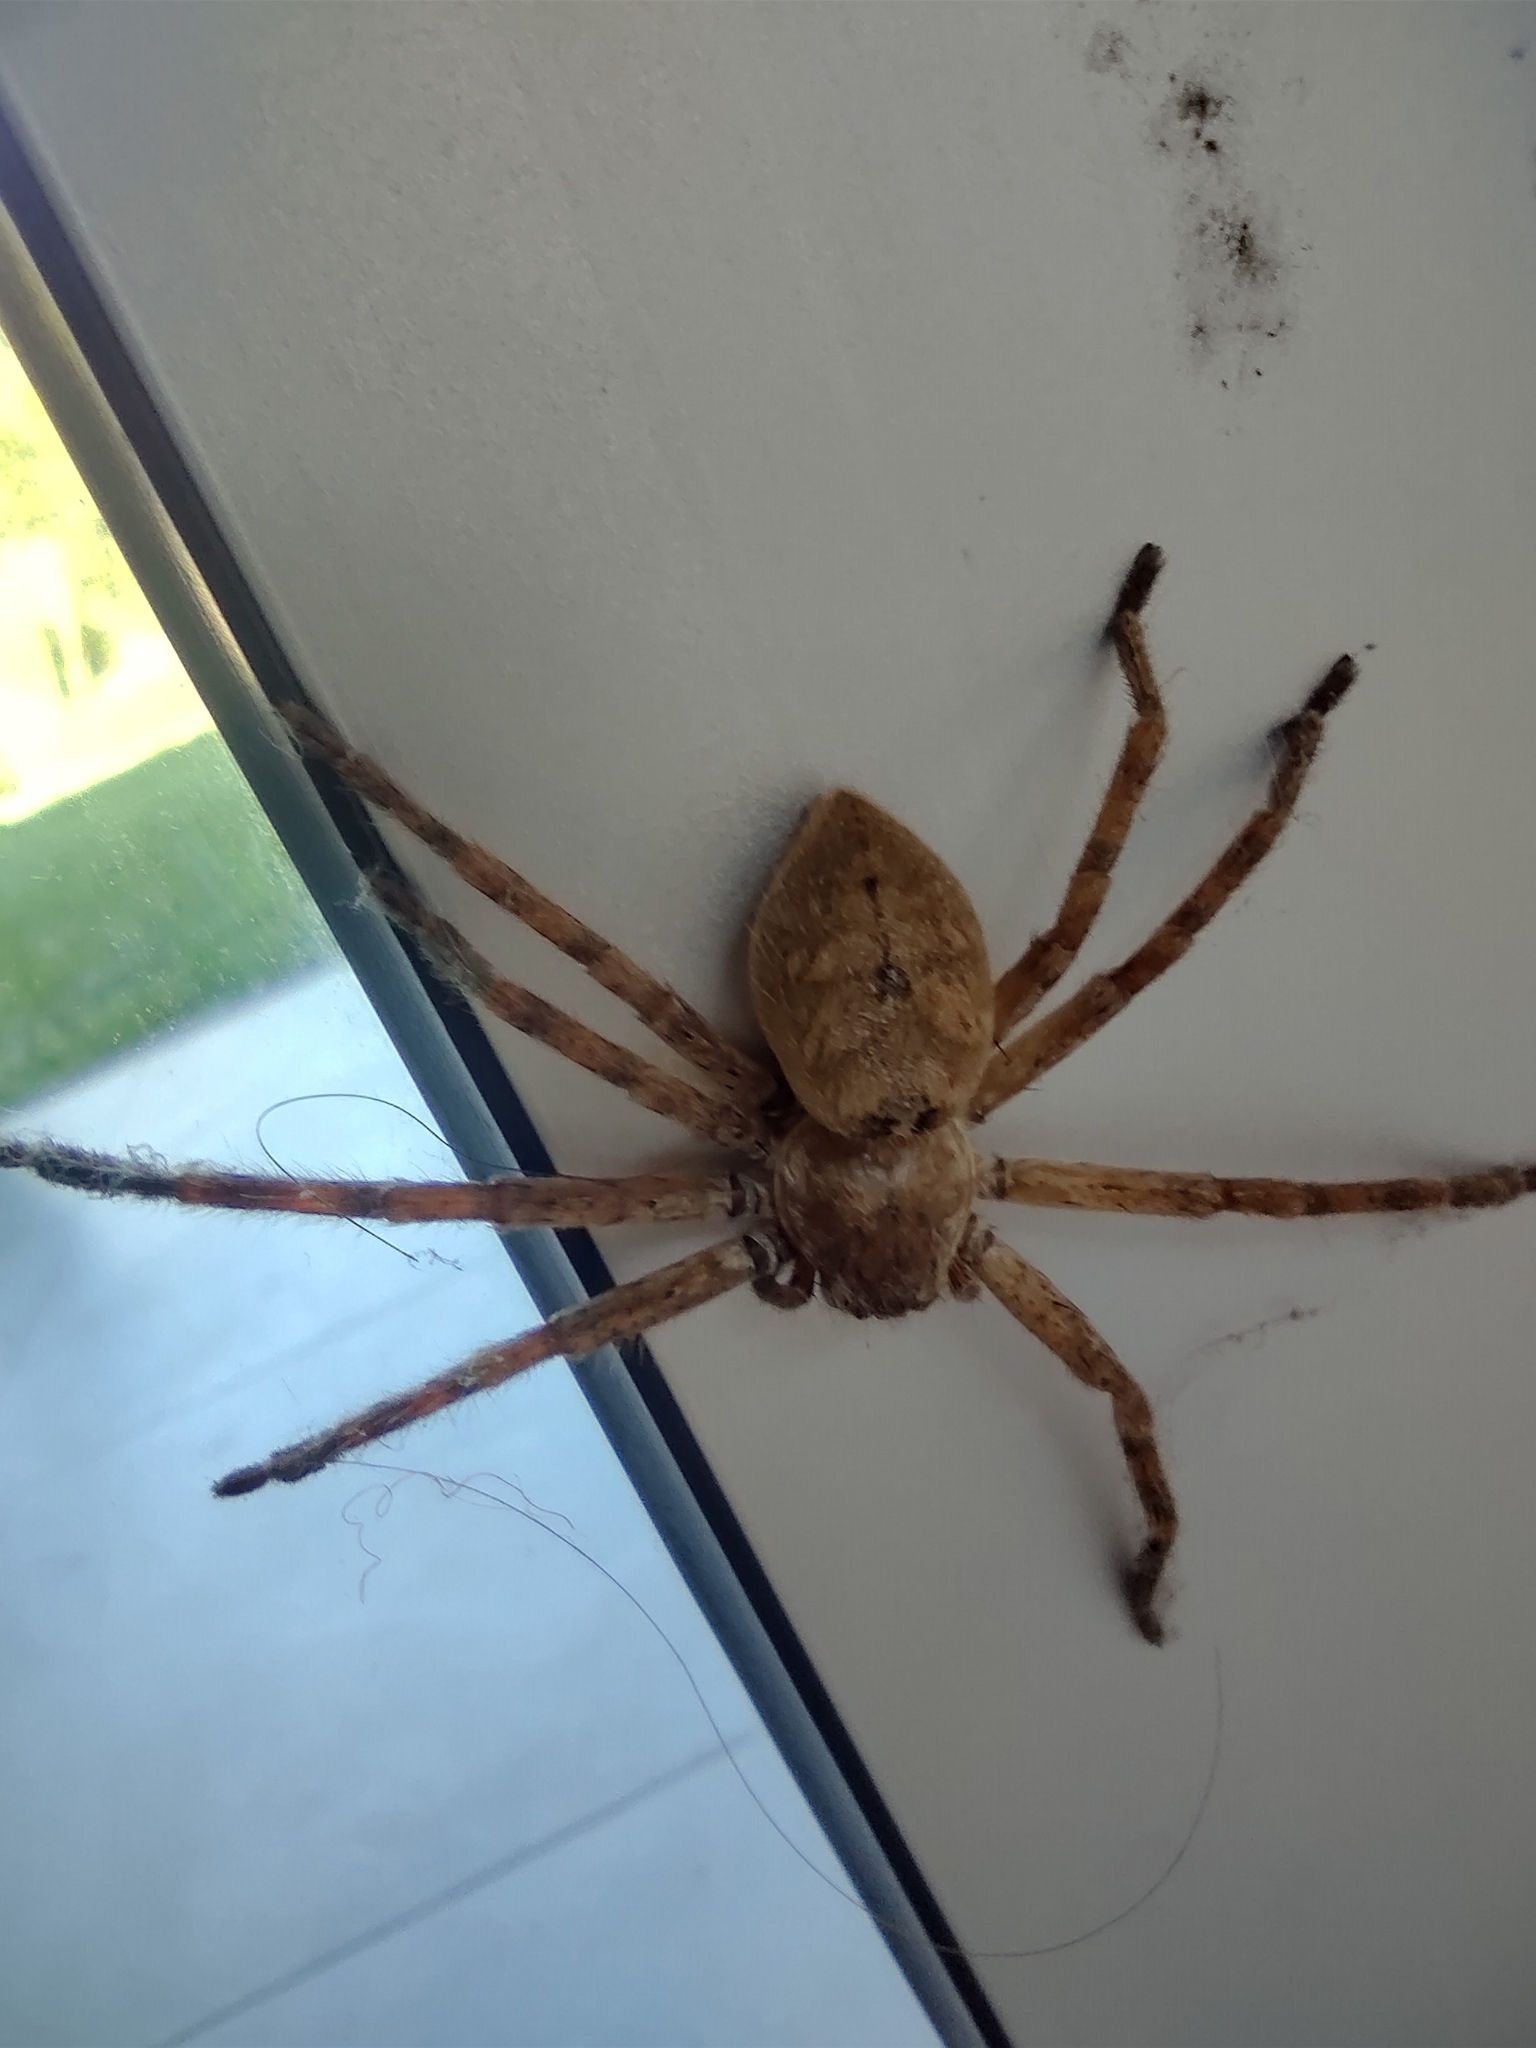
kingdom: Animalia
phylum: Arthropoda
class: Arachnida
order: Araneae
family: Sparassidae
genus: Polybetes
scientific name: Polybetes rapidus
